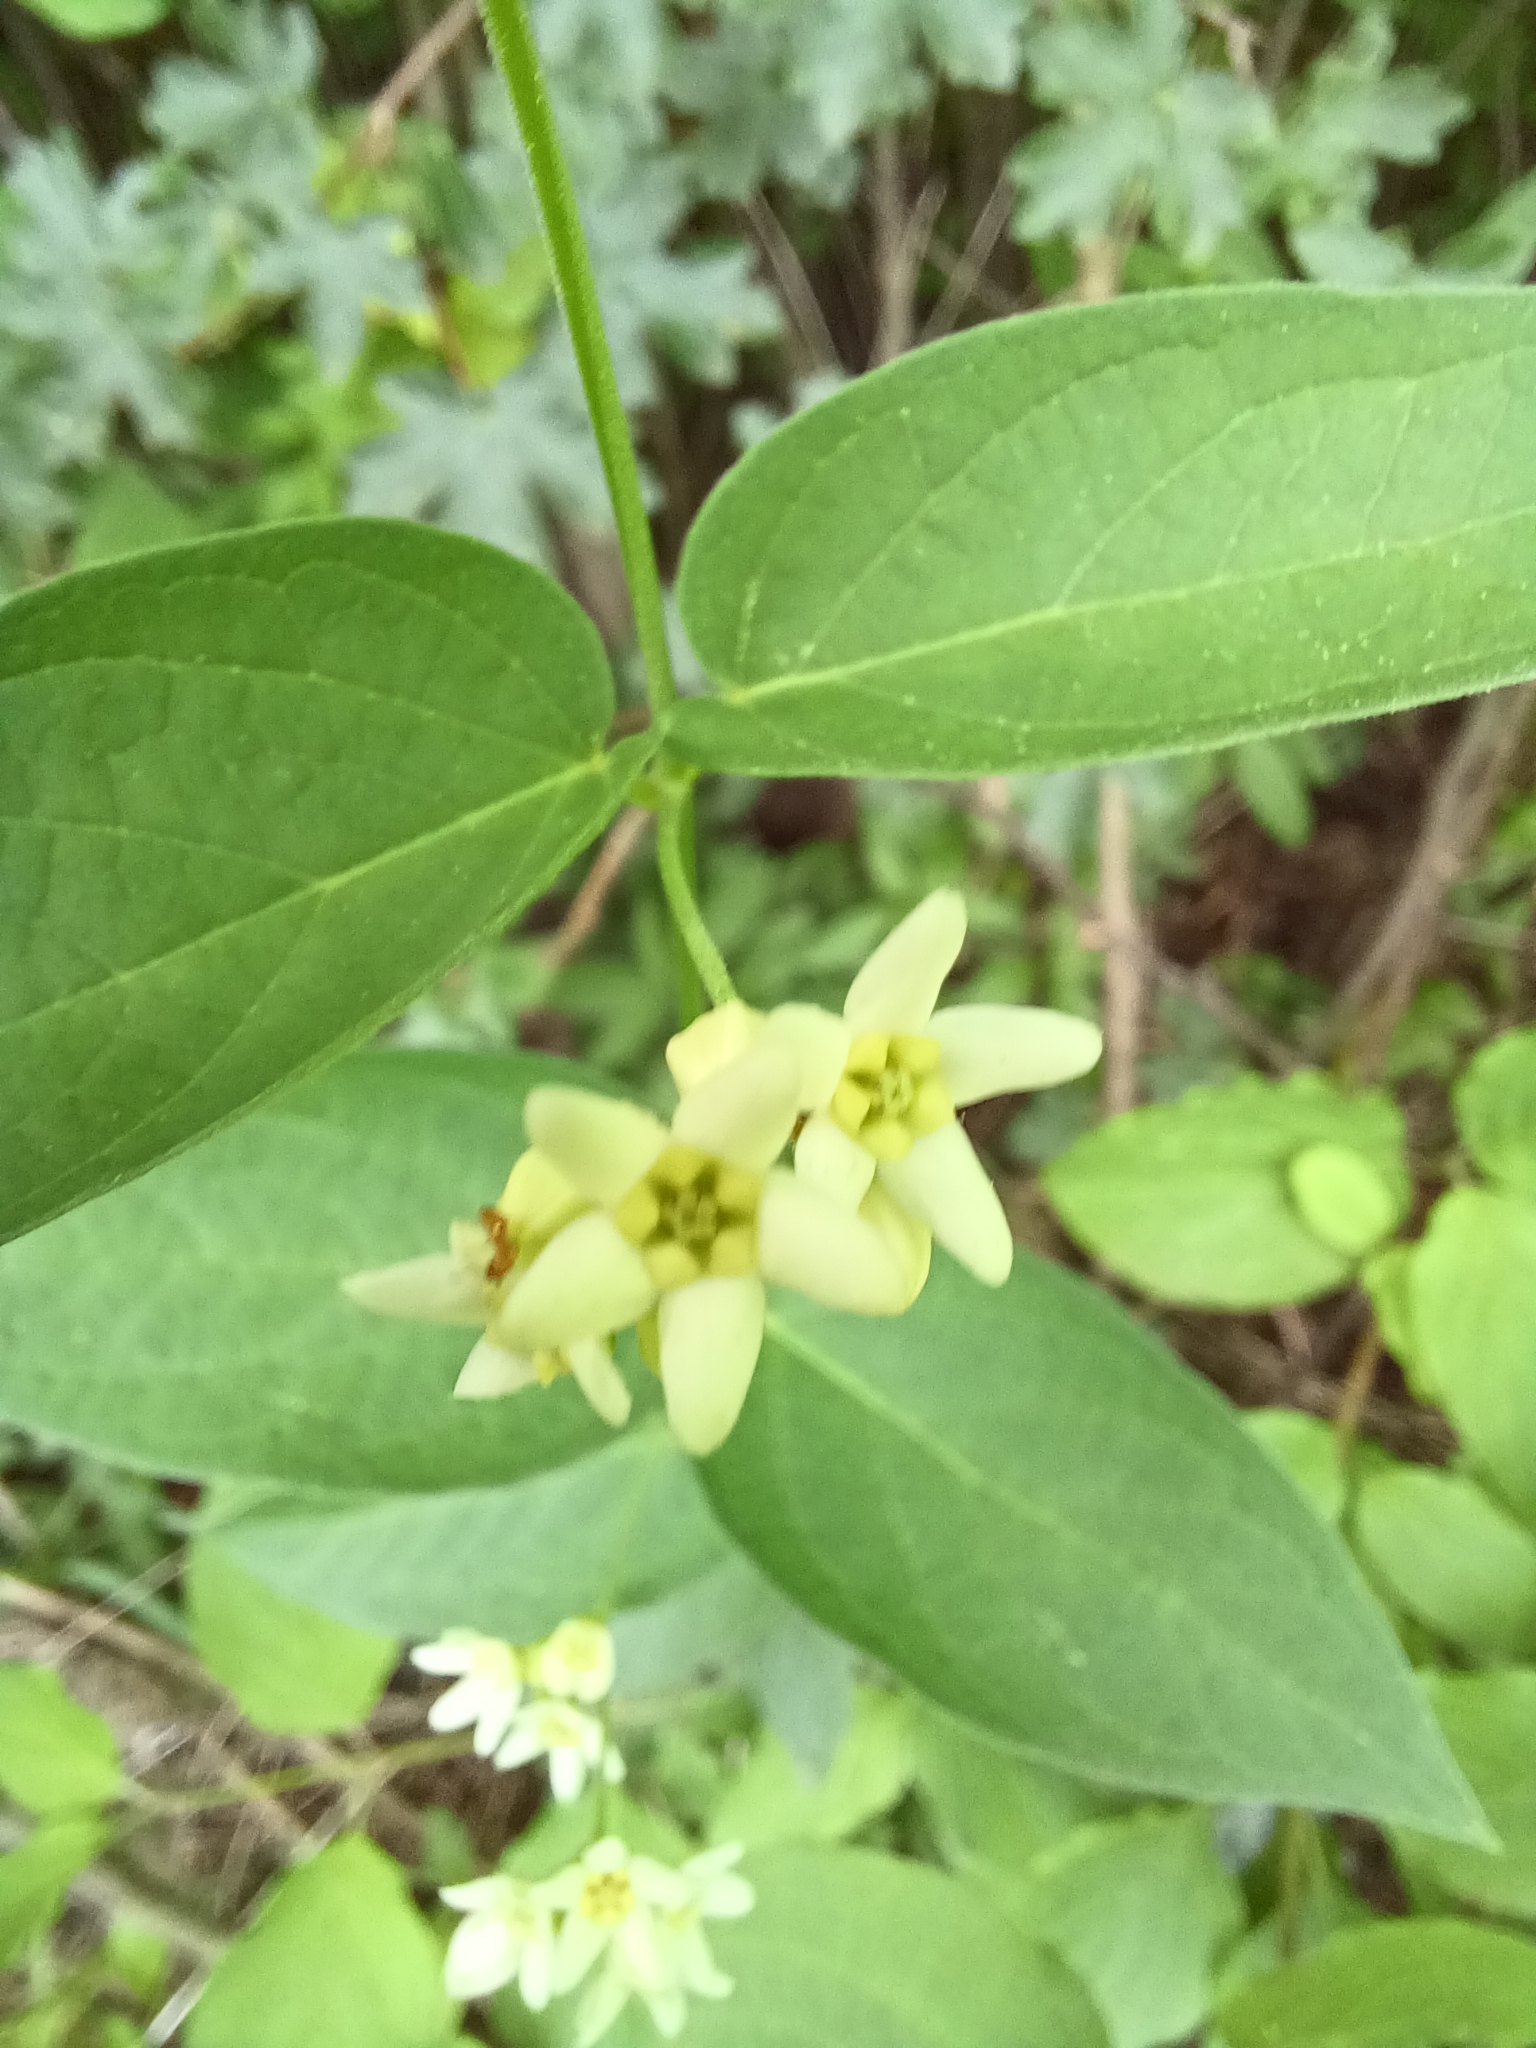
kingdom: Plantae
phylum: Tracheophyta
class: Magnoliopsida
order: Gentianales
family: Apocynaceae
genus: Vincetoxicum
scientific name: Vincetoxicum hirundinaria
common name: White swallowwort
